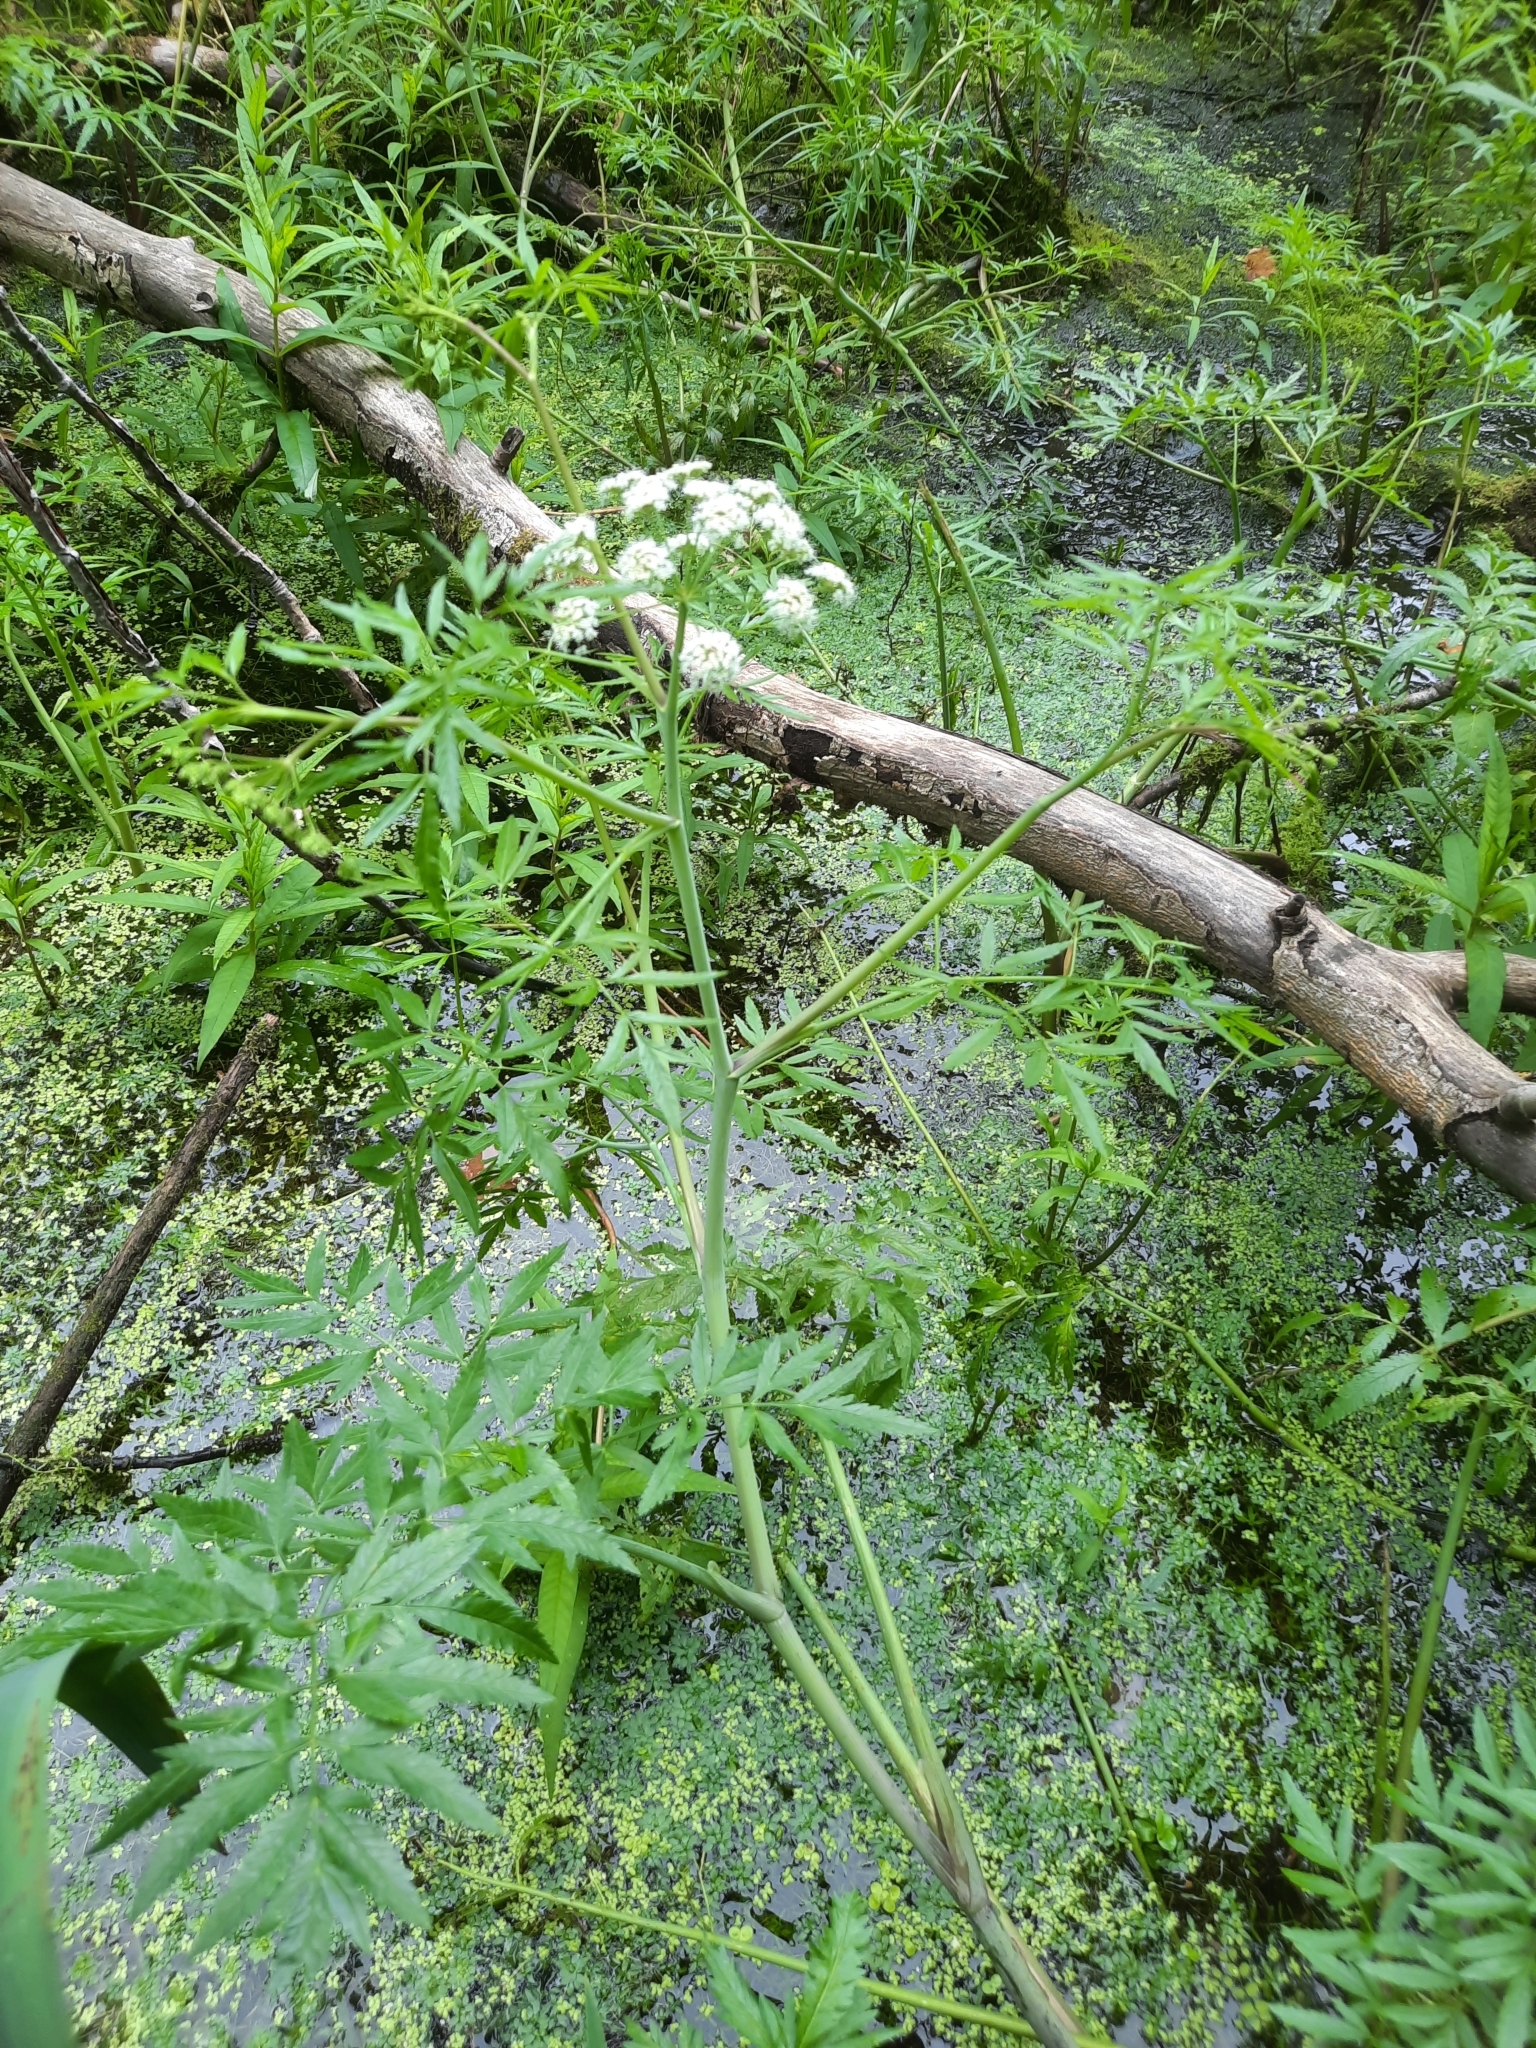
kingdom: Plantae
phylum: Tracheophyta
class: Magnoliopsida
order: Apiales
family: Apiaceae
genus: Cicuta
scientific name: Cicuta virosa
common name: Cowbane
